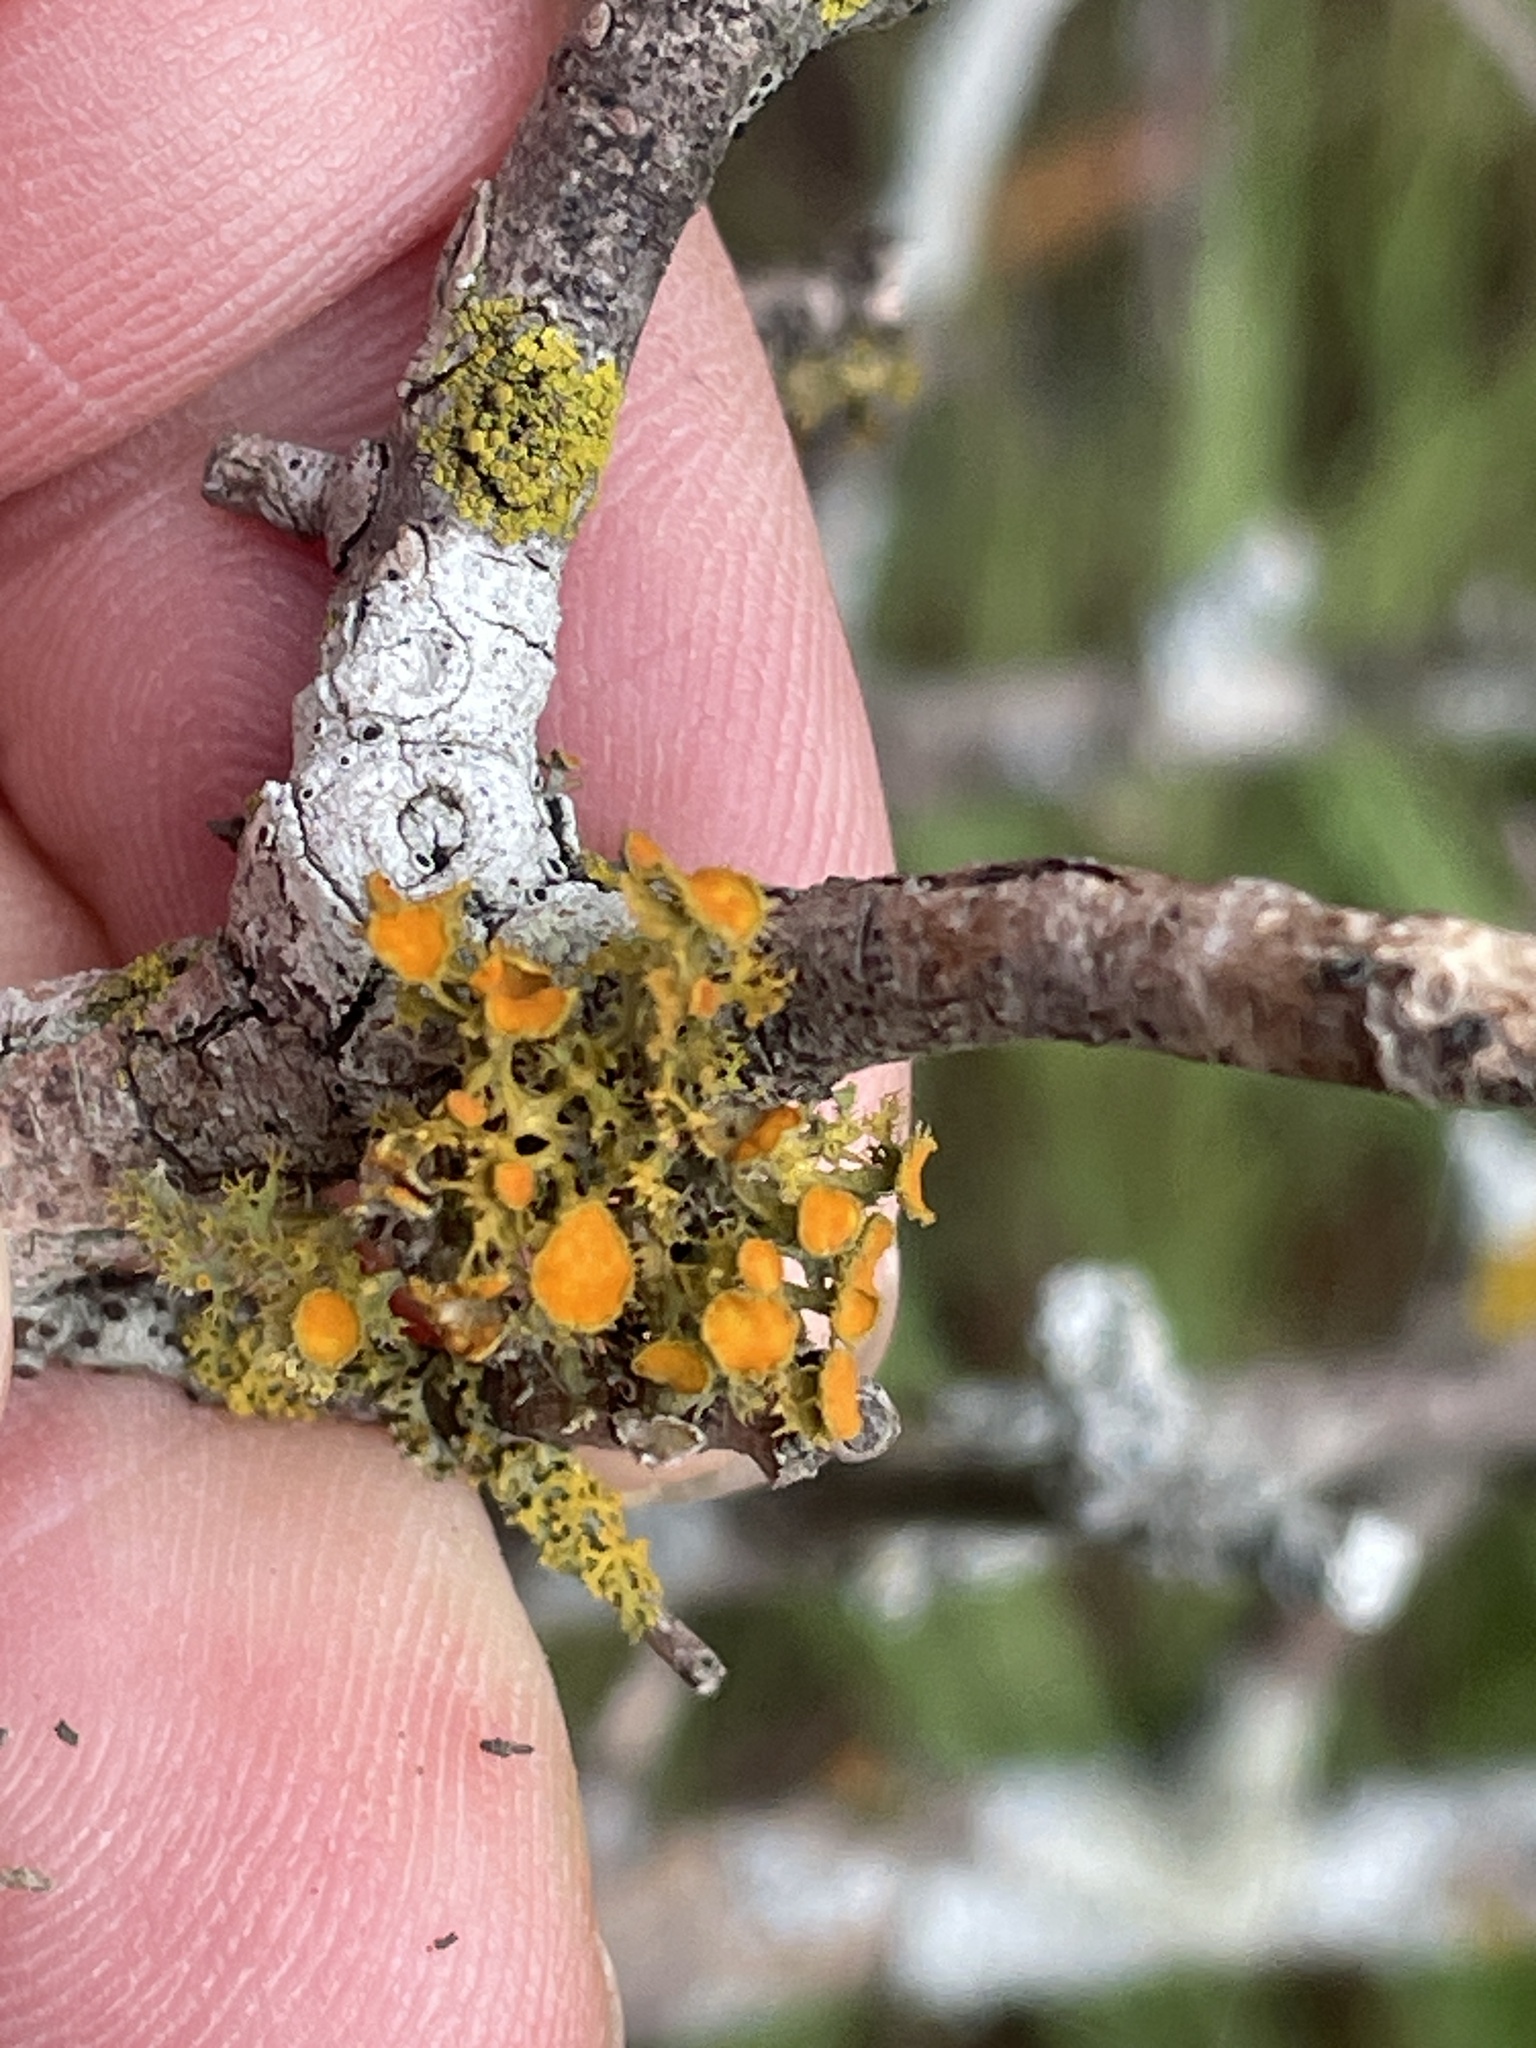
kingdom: Fungi
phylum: Ascomycota
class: Lecanoromycetes
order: Teloschistales
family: Teloschistaceae
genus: Niorma
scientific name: Niorma chrysophthalma
